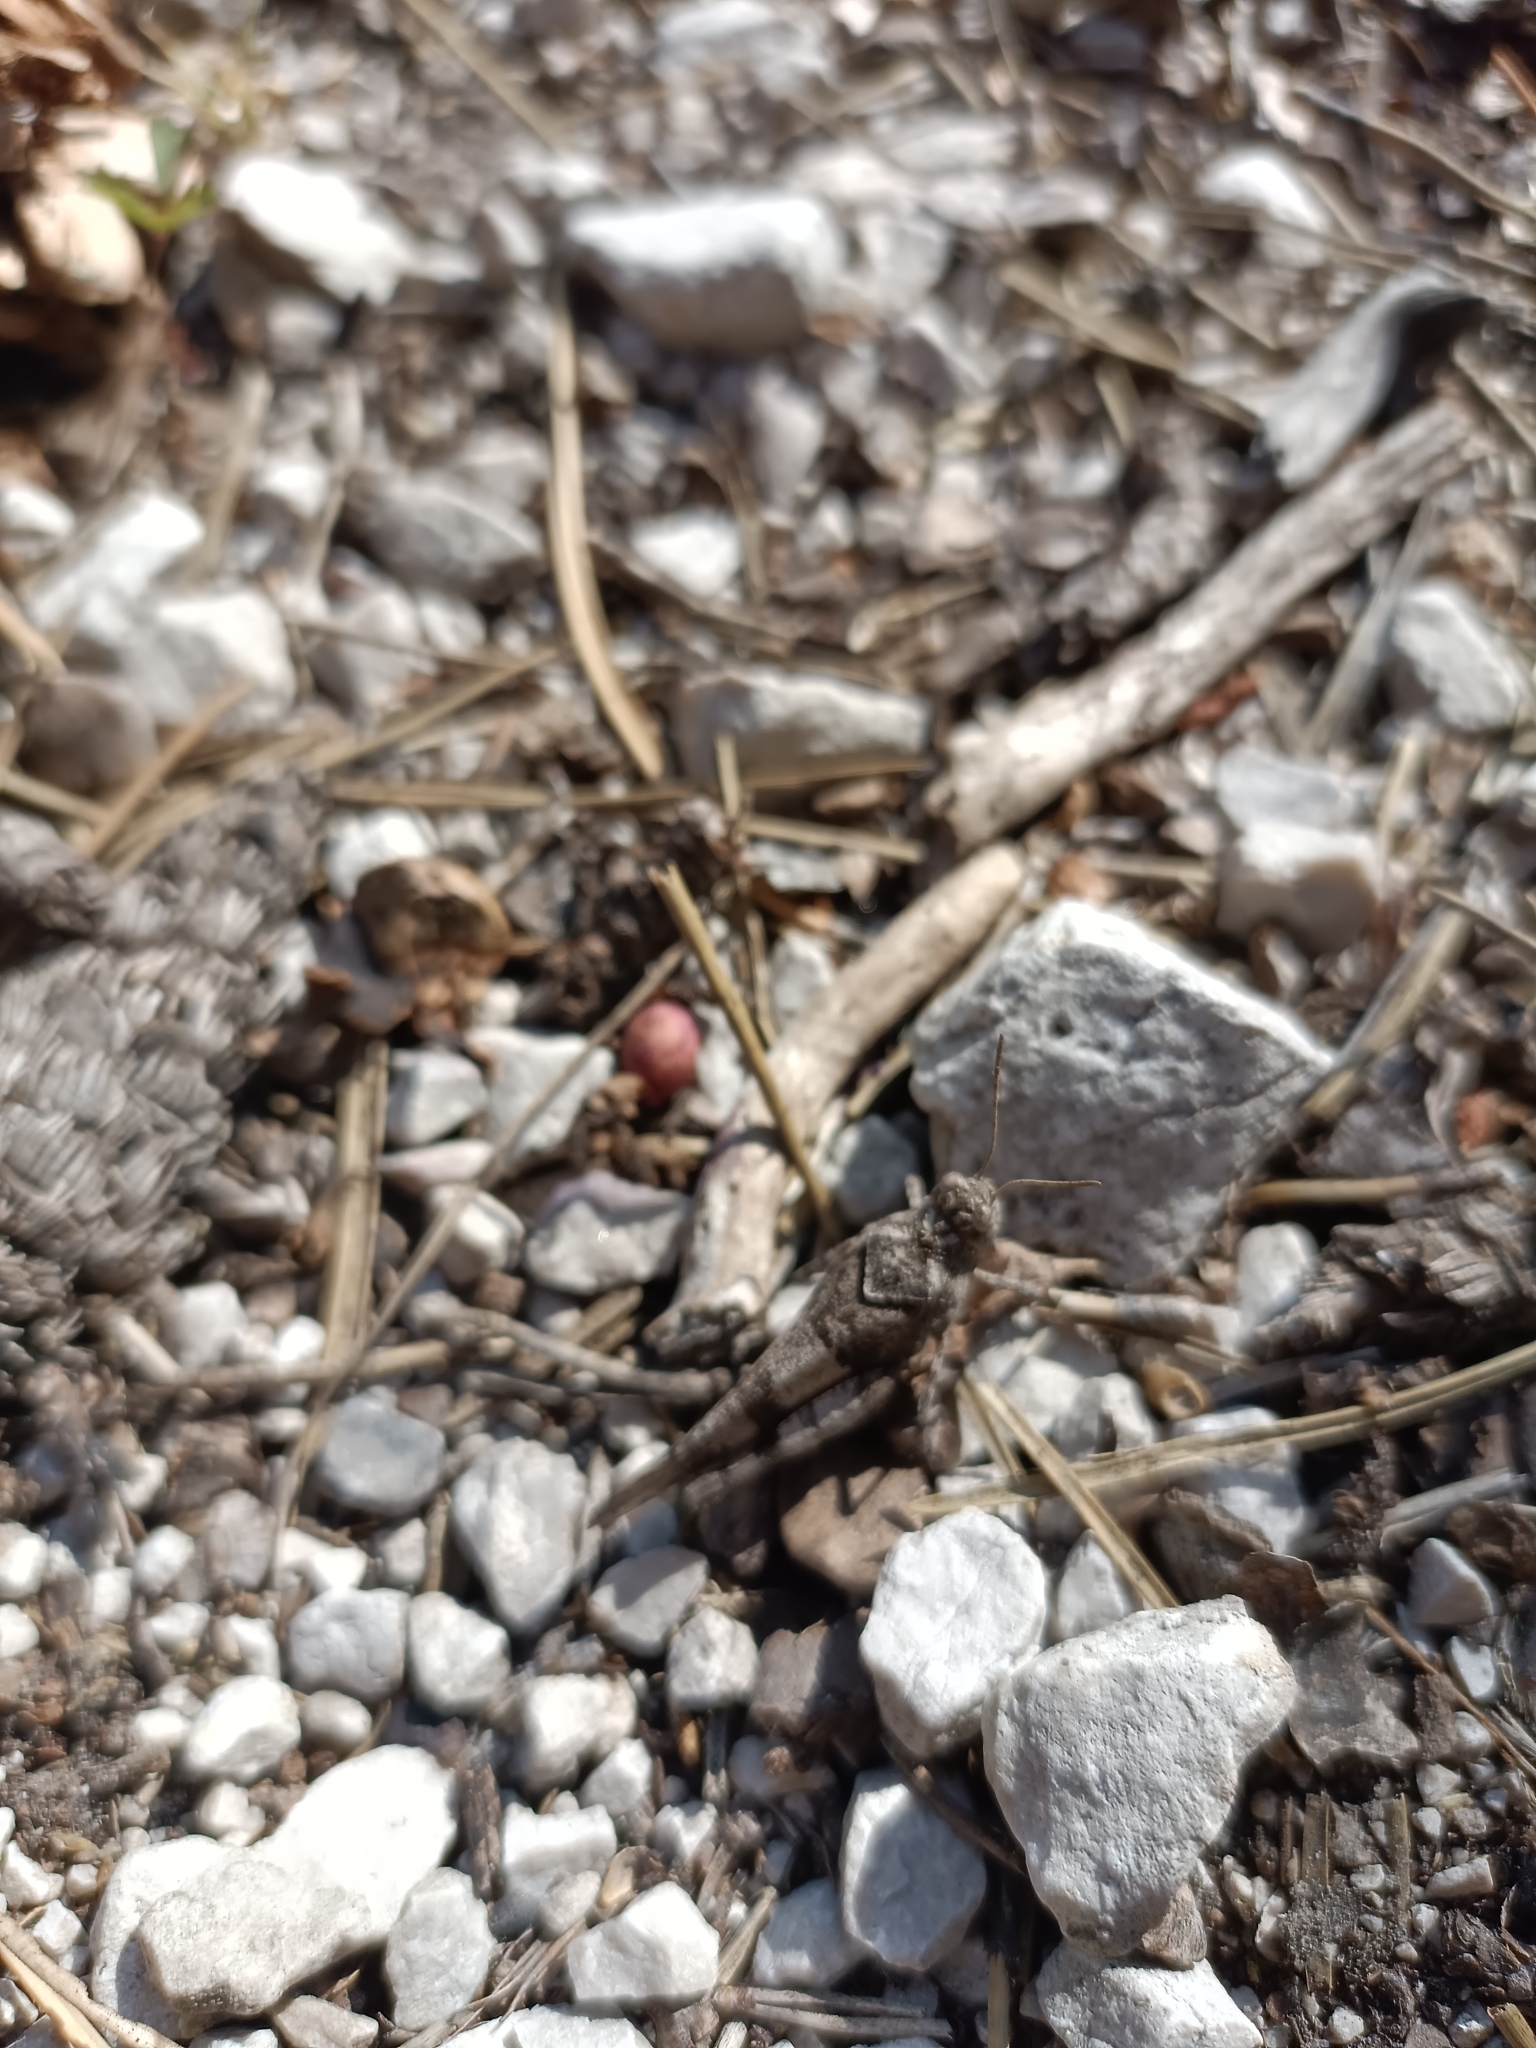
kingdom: Animalia
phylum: Arthropoda
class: Insecta
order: Orthoptera
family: Acrididae
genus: Oedipoda
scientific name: Oedipoda caerulescens
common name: Blue-winged grasshopper
